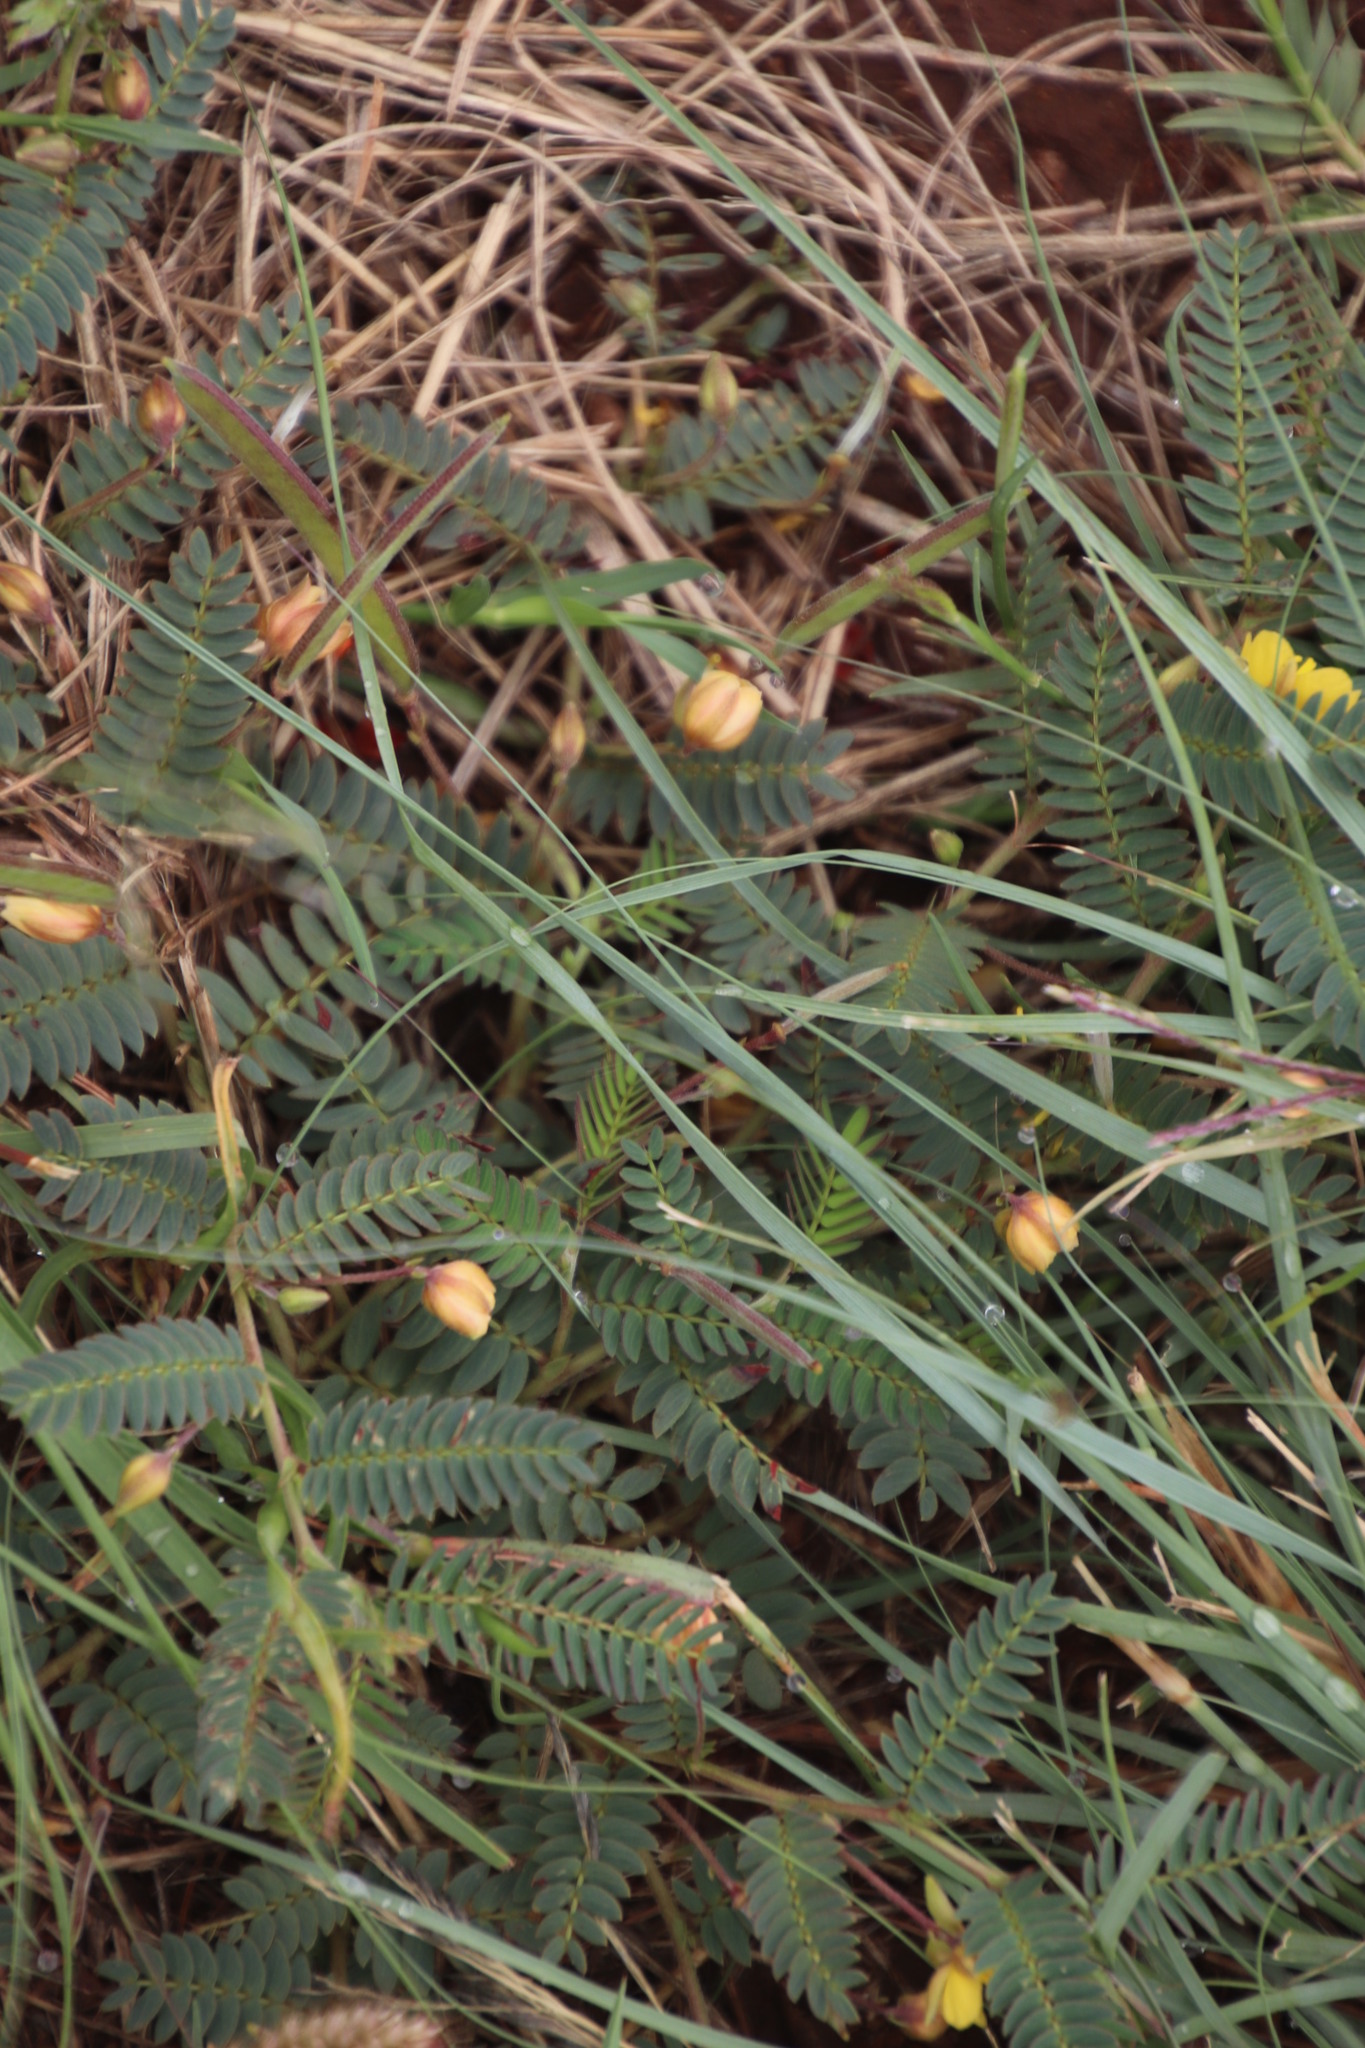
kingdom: Plantae
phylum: Tracheophyta
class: Magnoliopsida
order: Fabales
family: Fabaceae
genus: Chamaecrista
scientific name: Chamaecrista comosa
